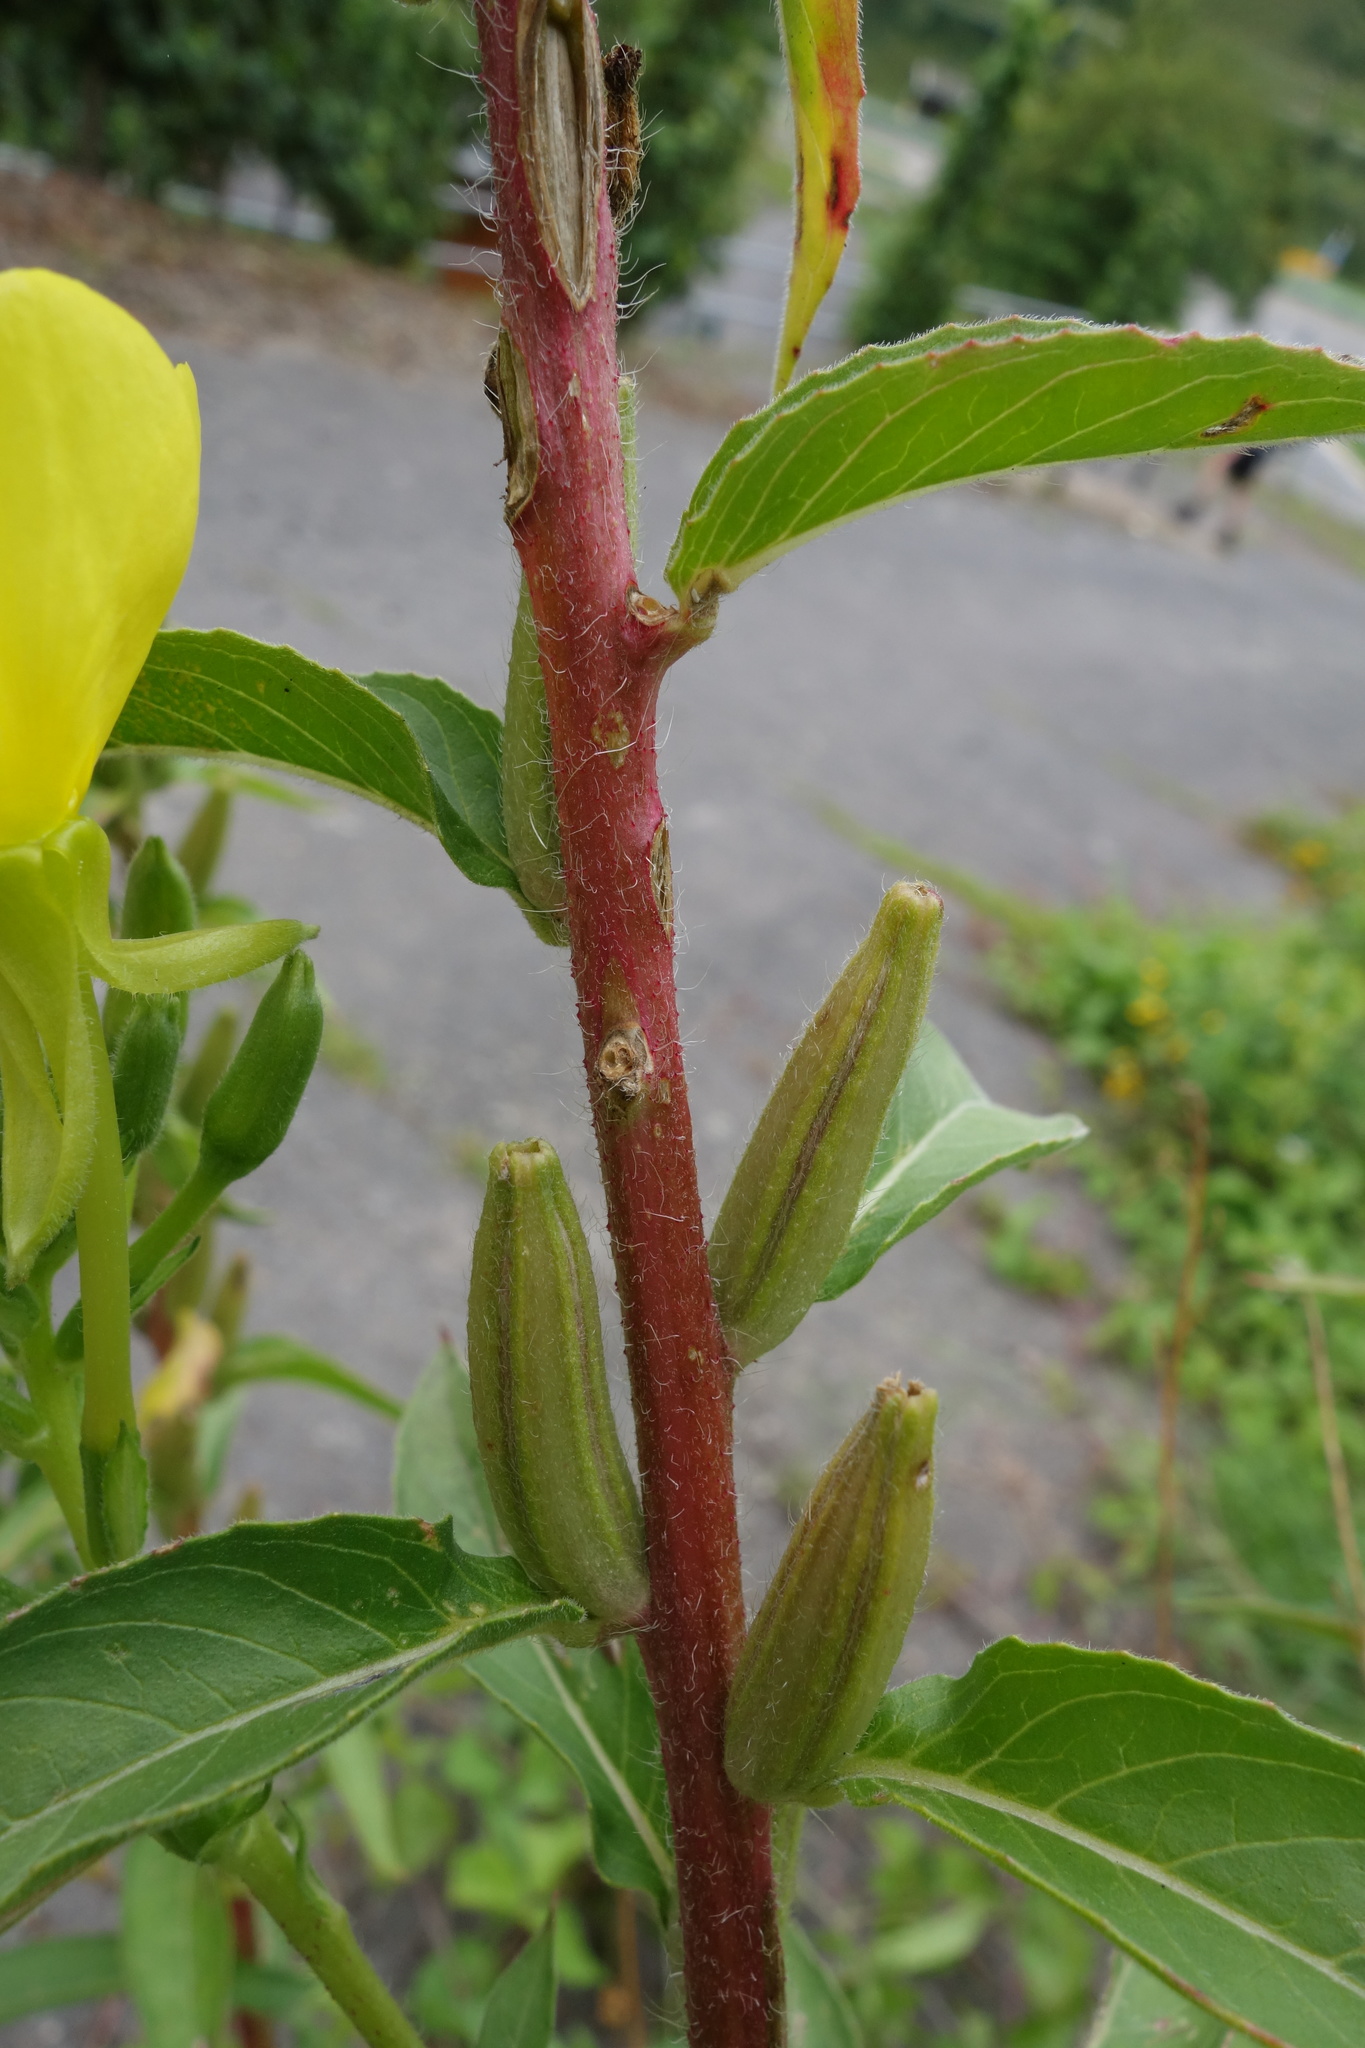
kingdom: Plantae
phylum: Tracheophyta
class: Magnoliopsida
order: Myrtales
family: Onagraceae
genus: Oenothera
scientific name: Oenothera biennis
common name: Common evening-primrose
